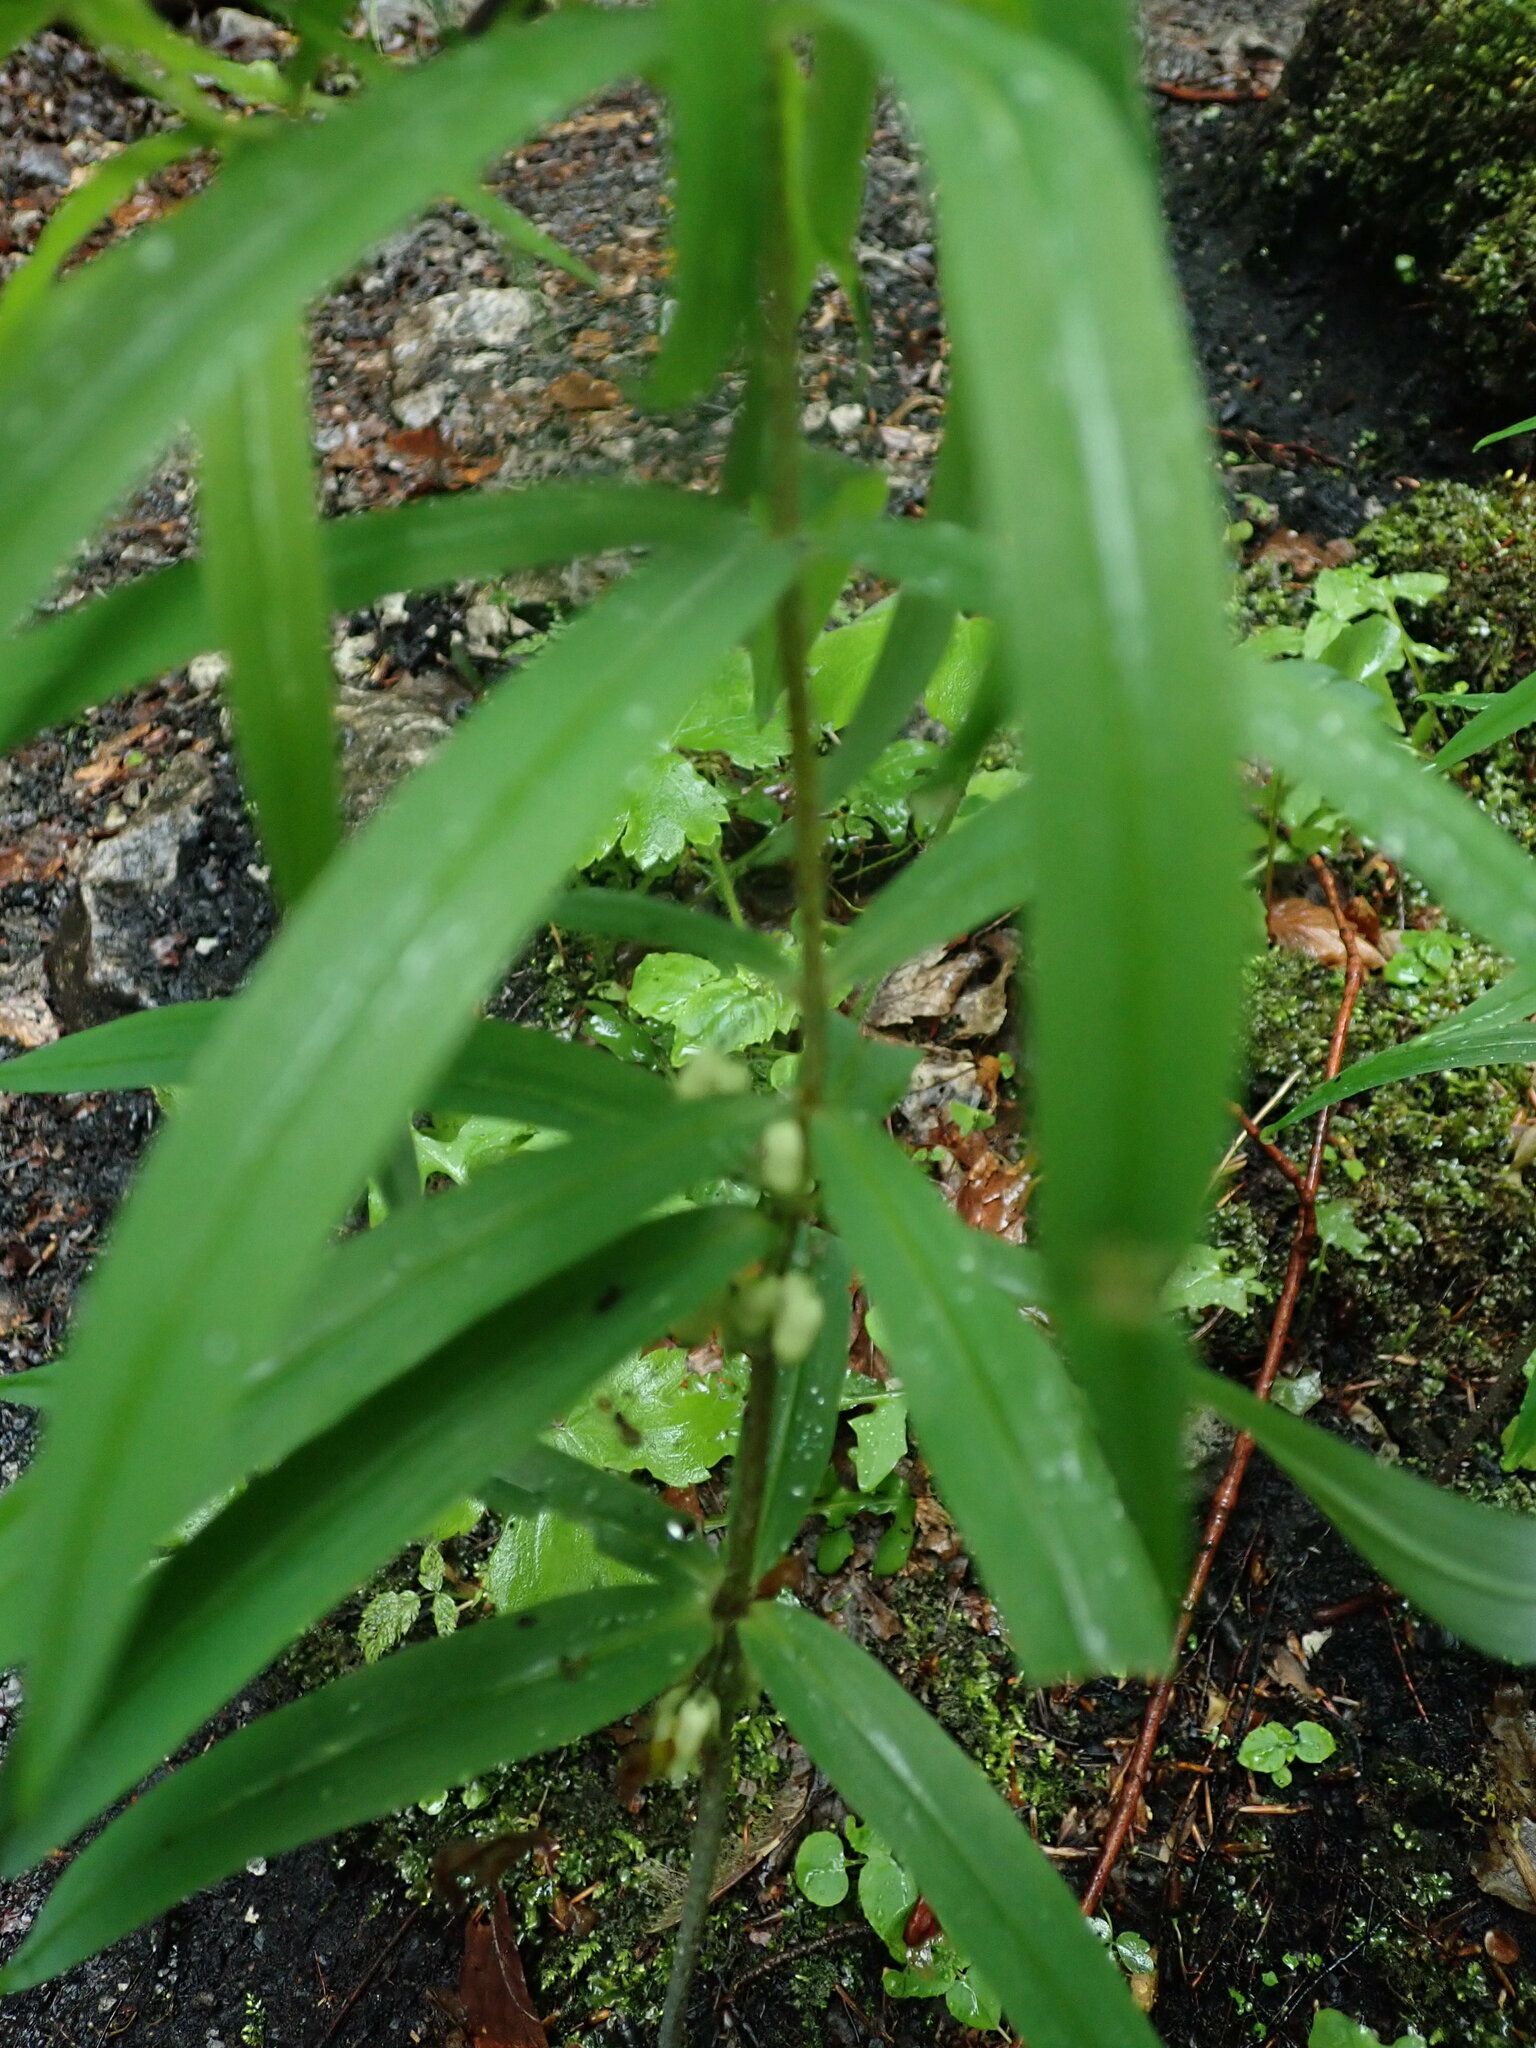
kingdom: Plantae
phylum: Tracheophyta
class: Liliopsida
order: Asparagales
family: Asparagaceae
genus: Polygonatum
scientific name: Polygonatum verticillatum
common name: Whorled solomon's-seal
